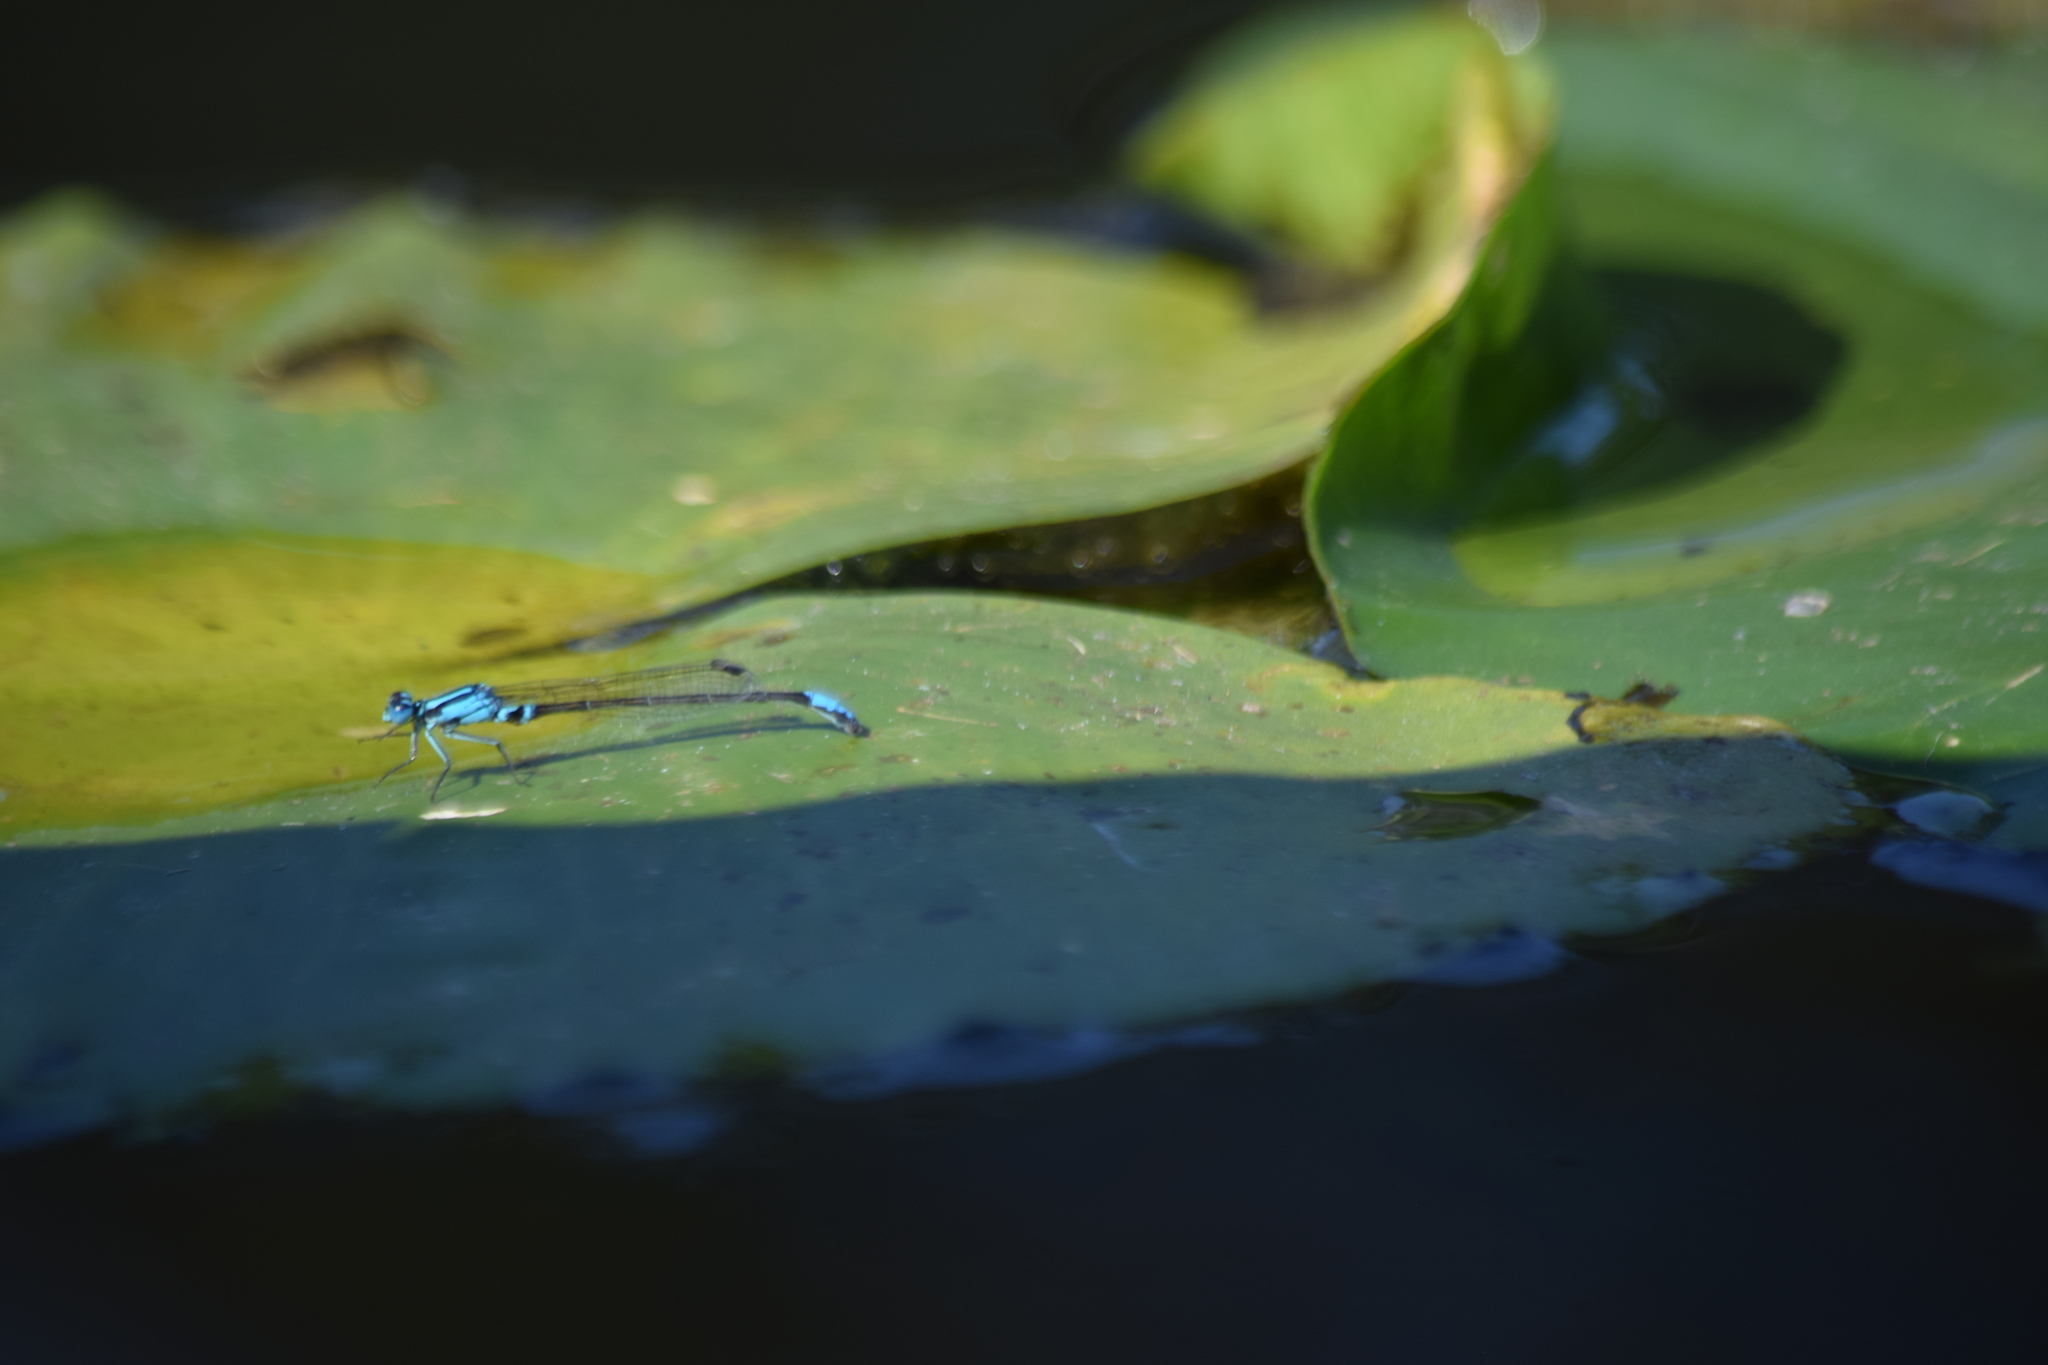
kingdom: Animalia
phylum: Arthropoda
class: Insecta
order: Odonata
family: Coenagrionidae
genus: Ischnura
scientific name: Ischnura kellicotti
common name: Lilypad forktail
